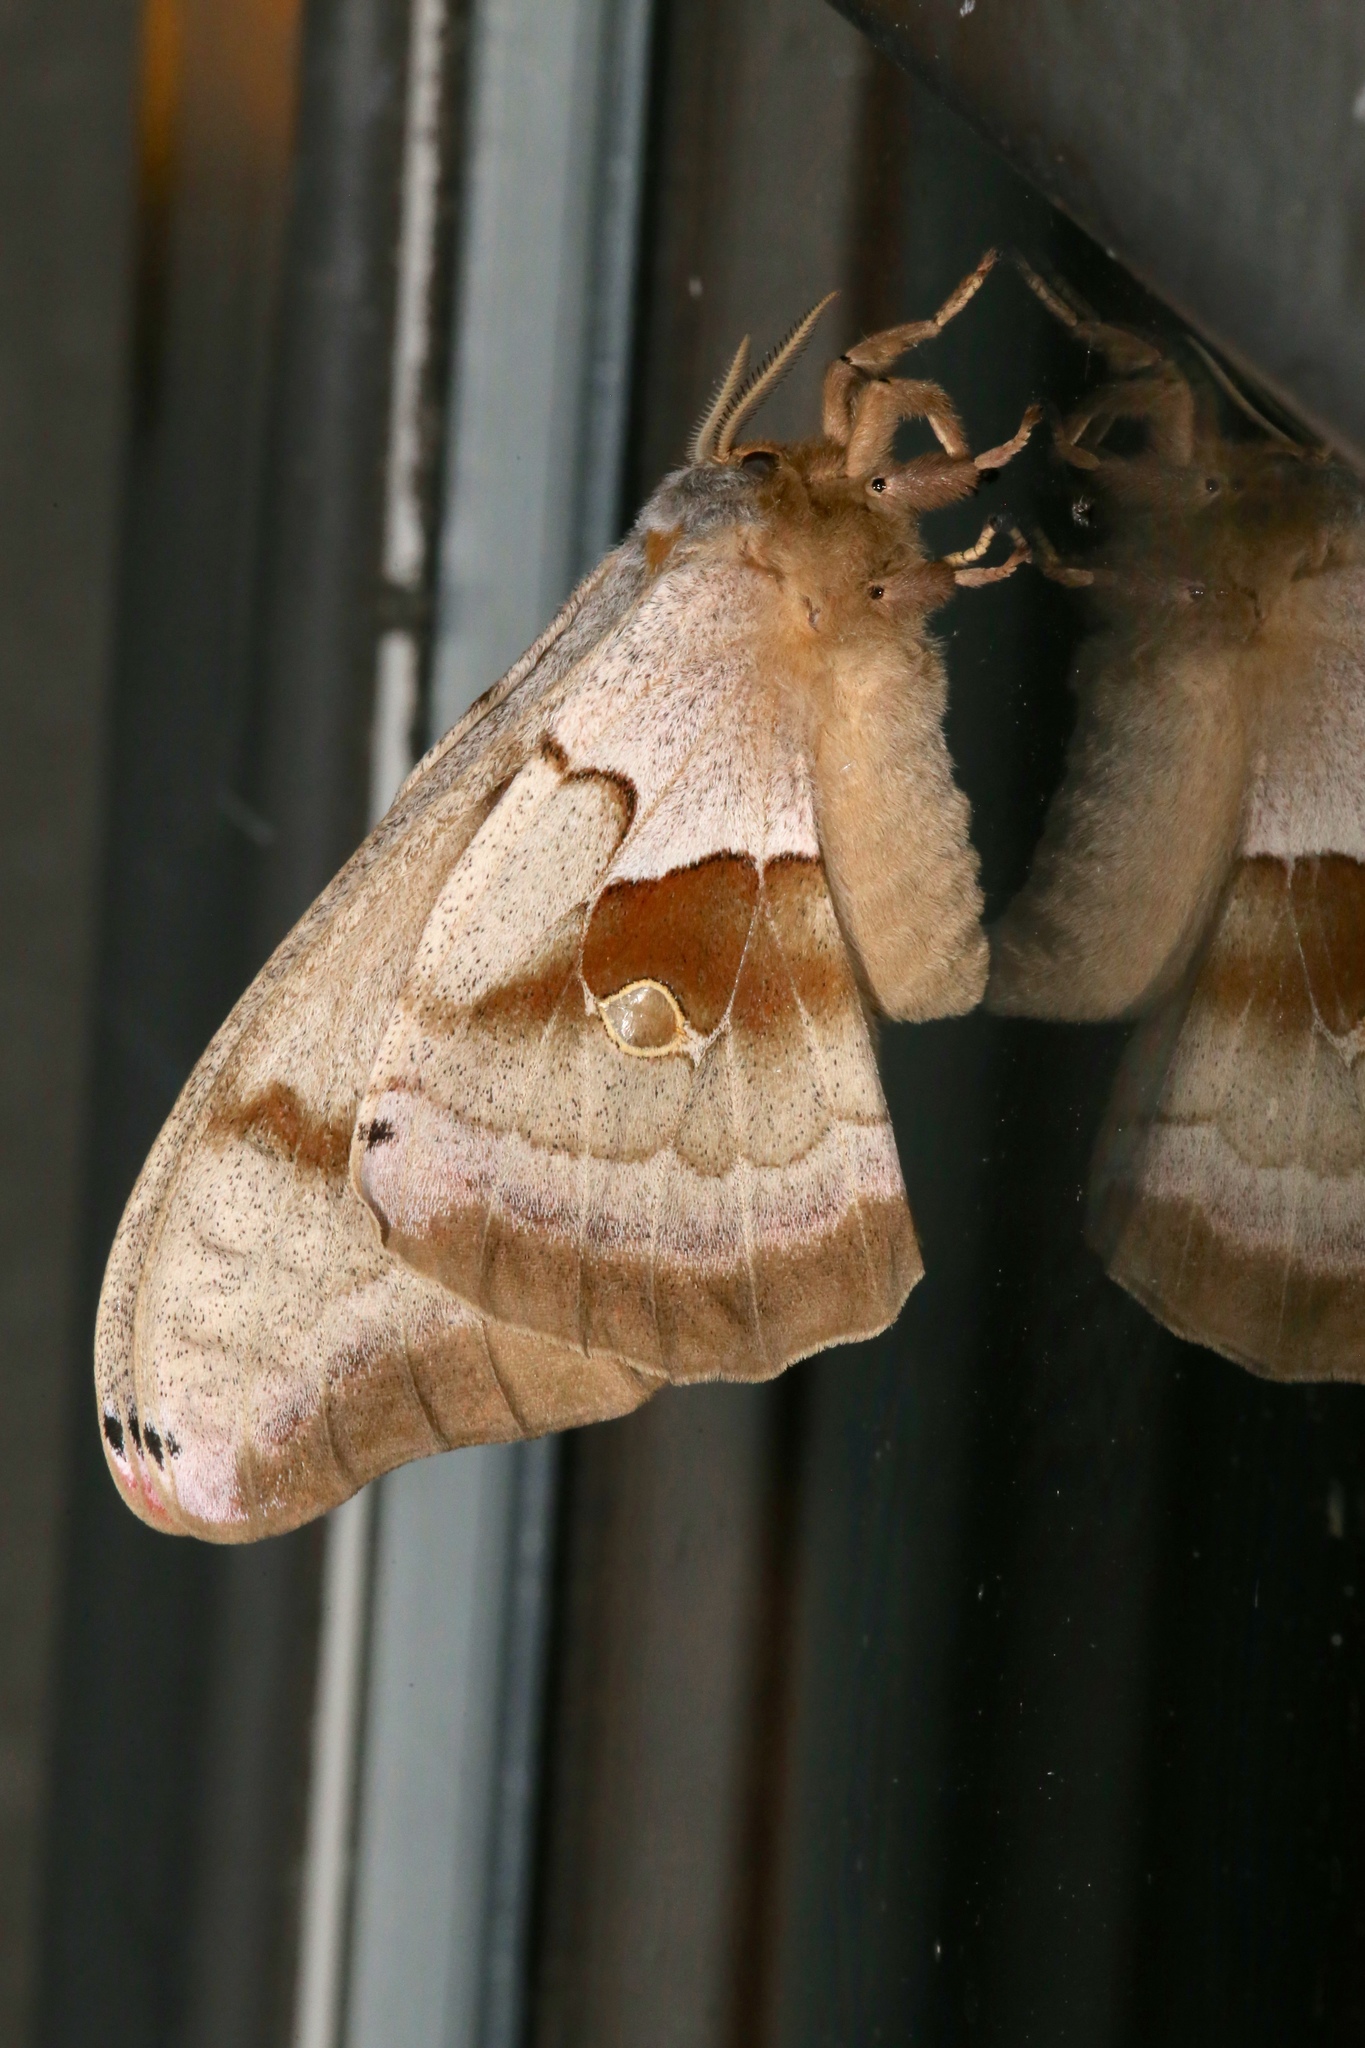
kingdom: Animalia
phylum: Arthropoda
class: Insecta
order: Lepidoptera
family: Saturniidae
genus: Antheraea
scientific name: Antheraea polyphemus
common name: Polyphemus moth
